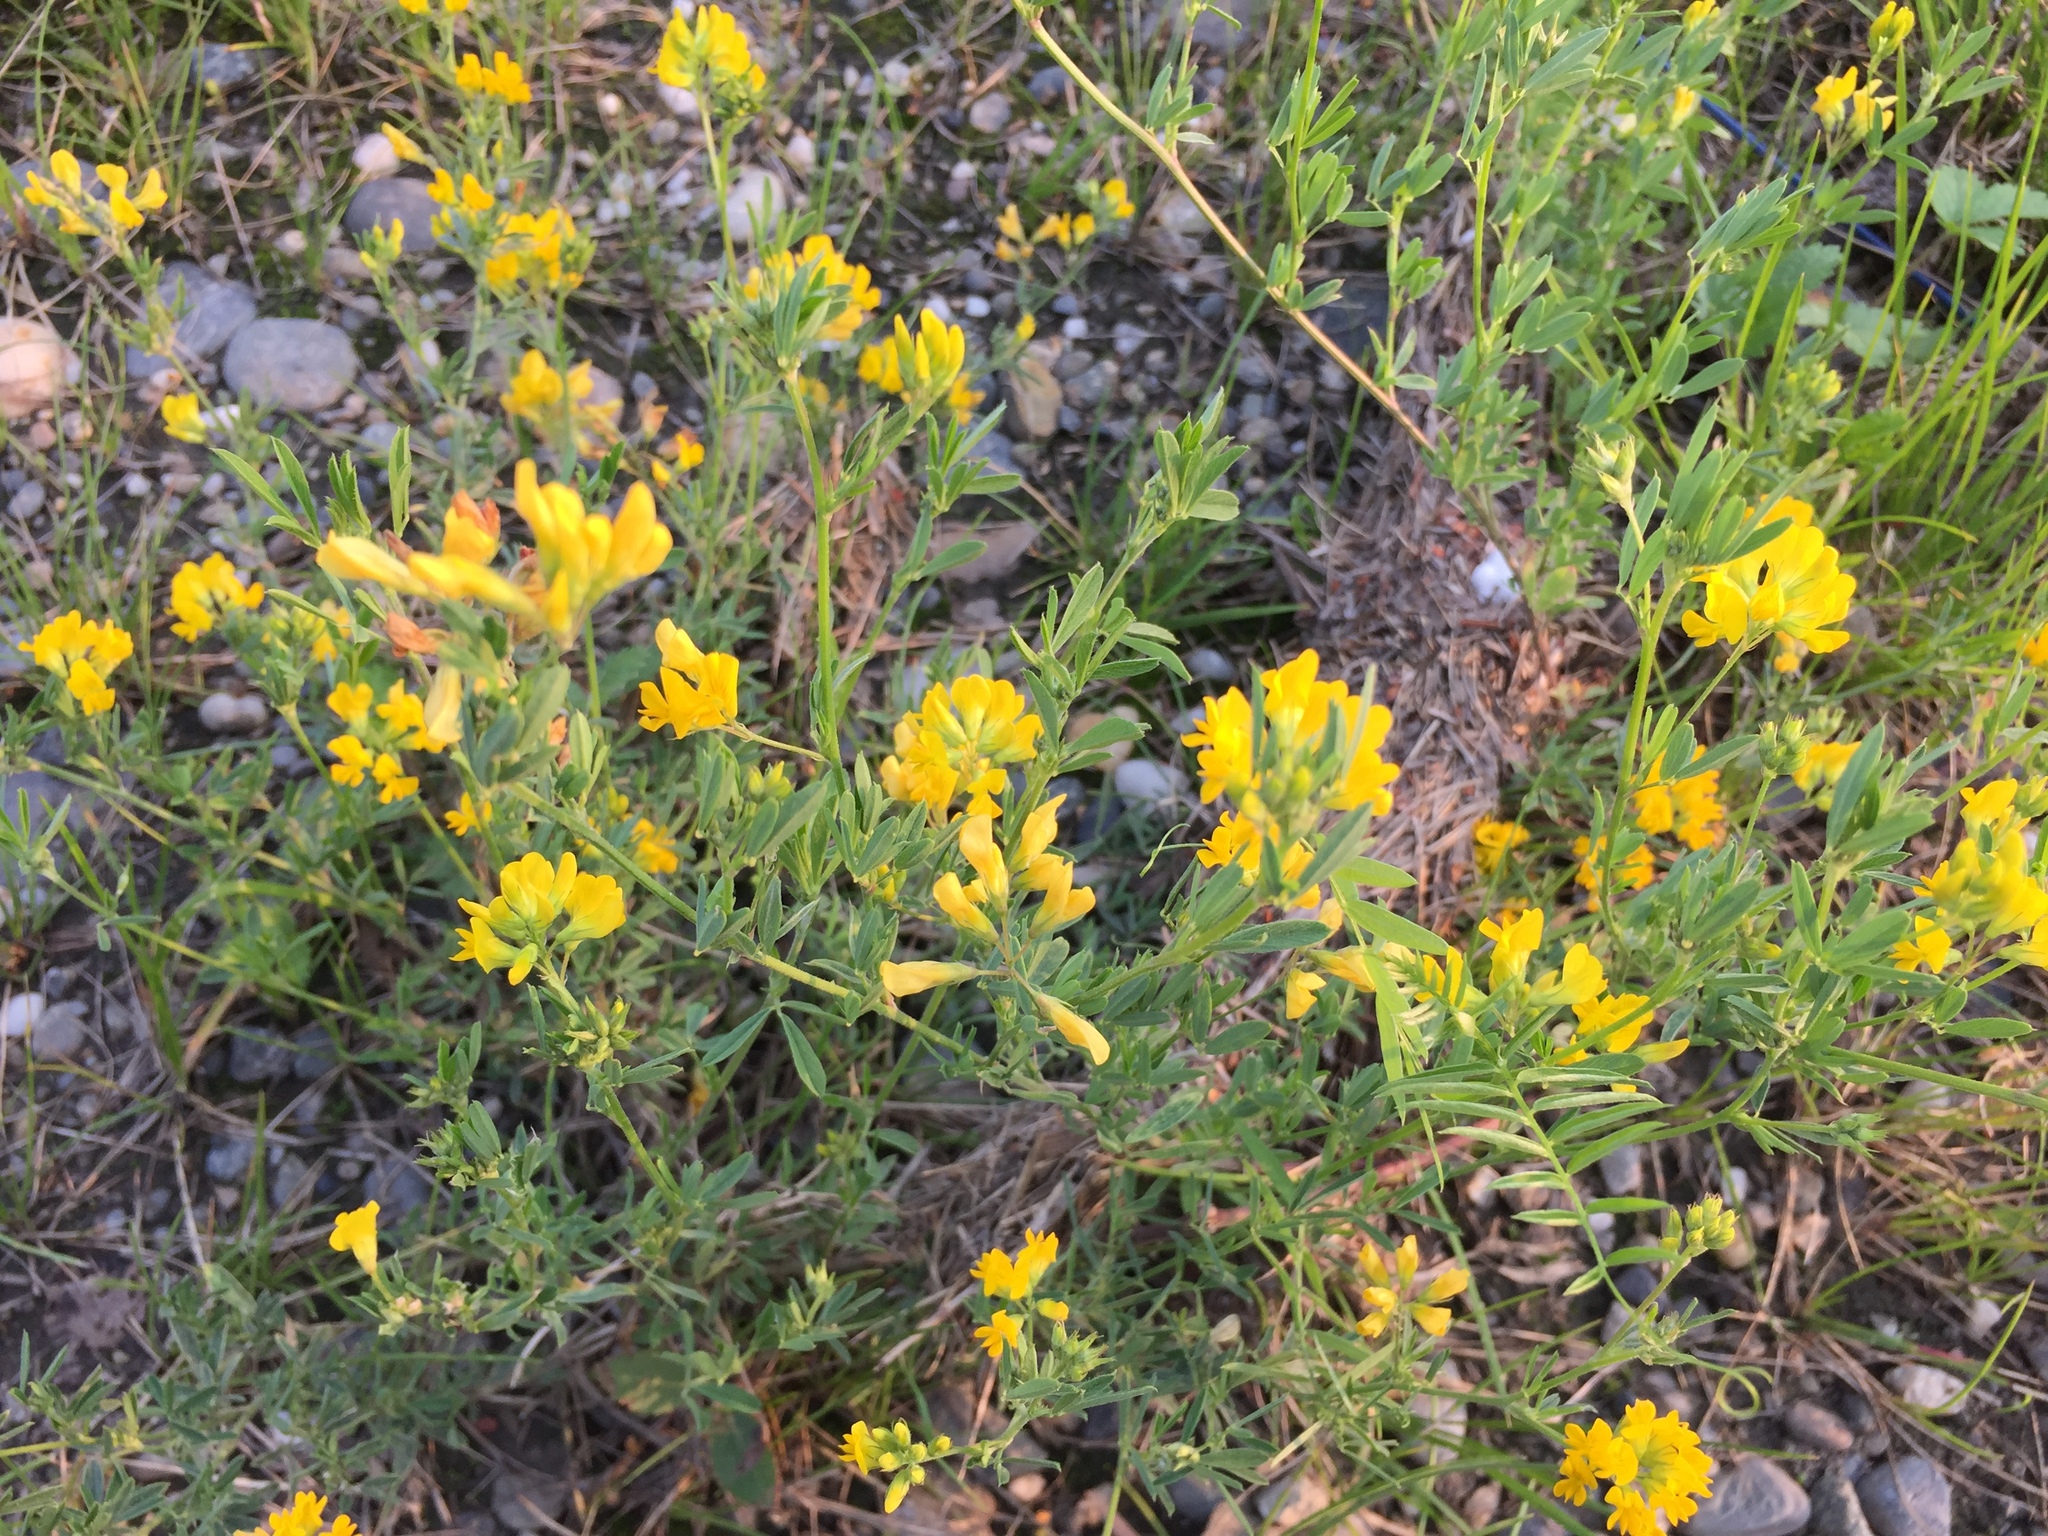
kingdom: Plantae
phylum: Tracheophyta
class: Magnoliopsida
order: Fabales
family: Fabaceae
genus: Medicago
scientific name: Medicago falcata
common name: Sickle medick
